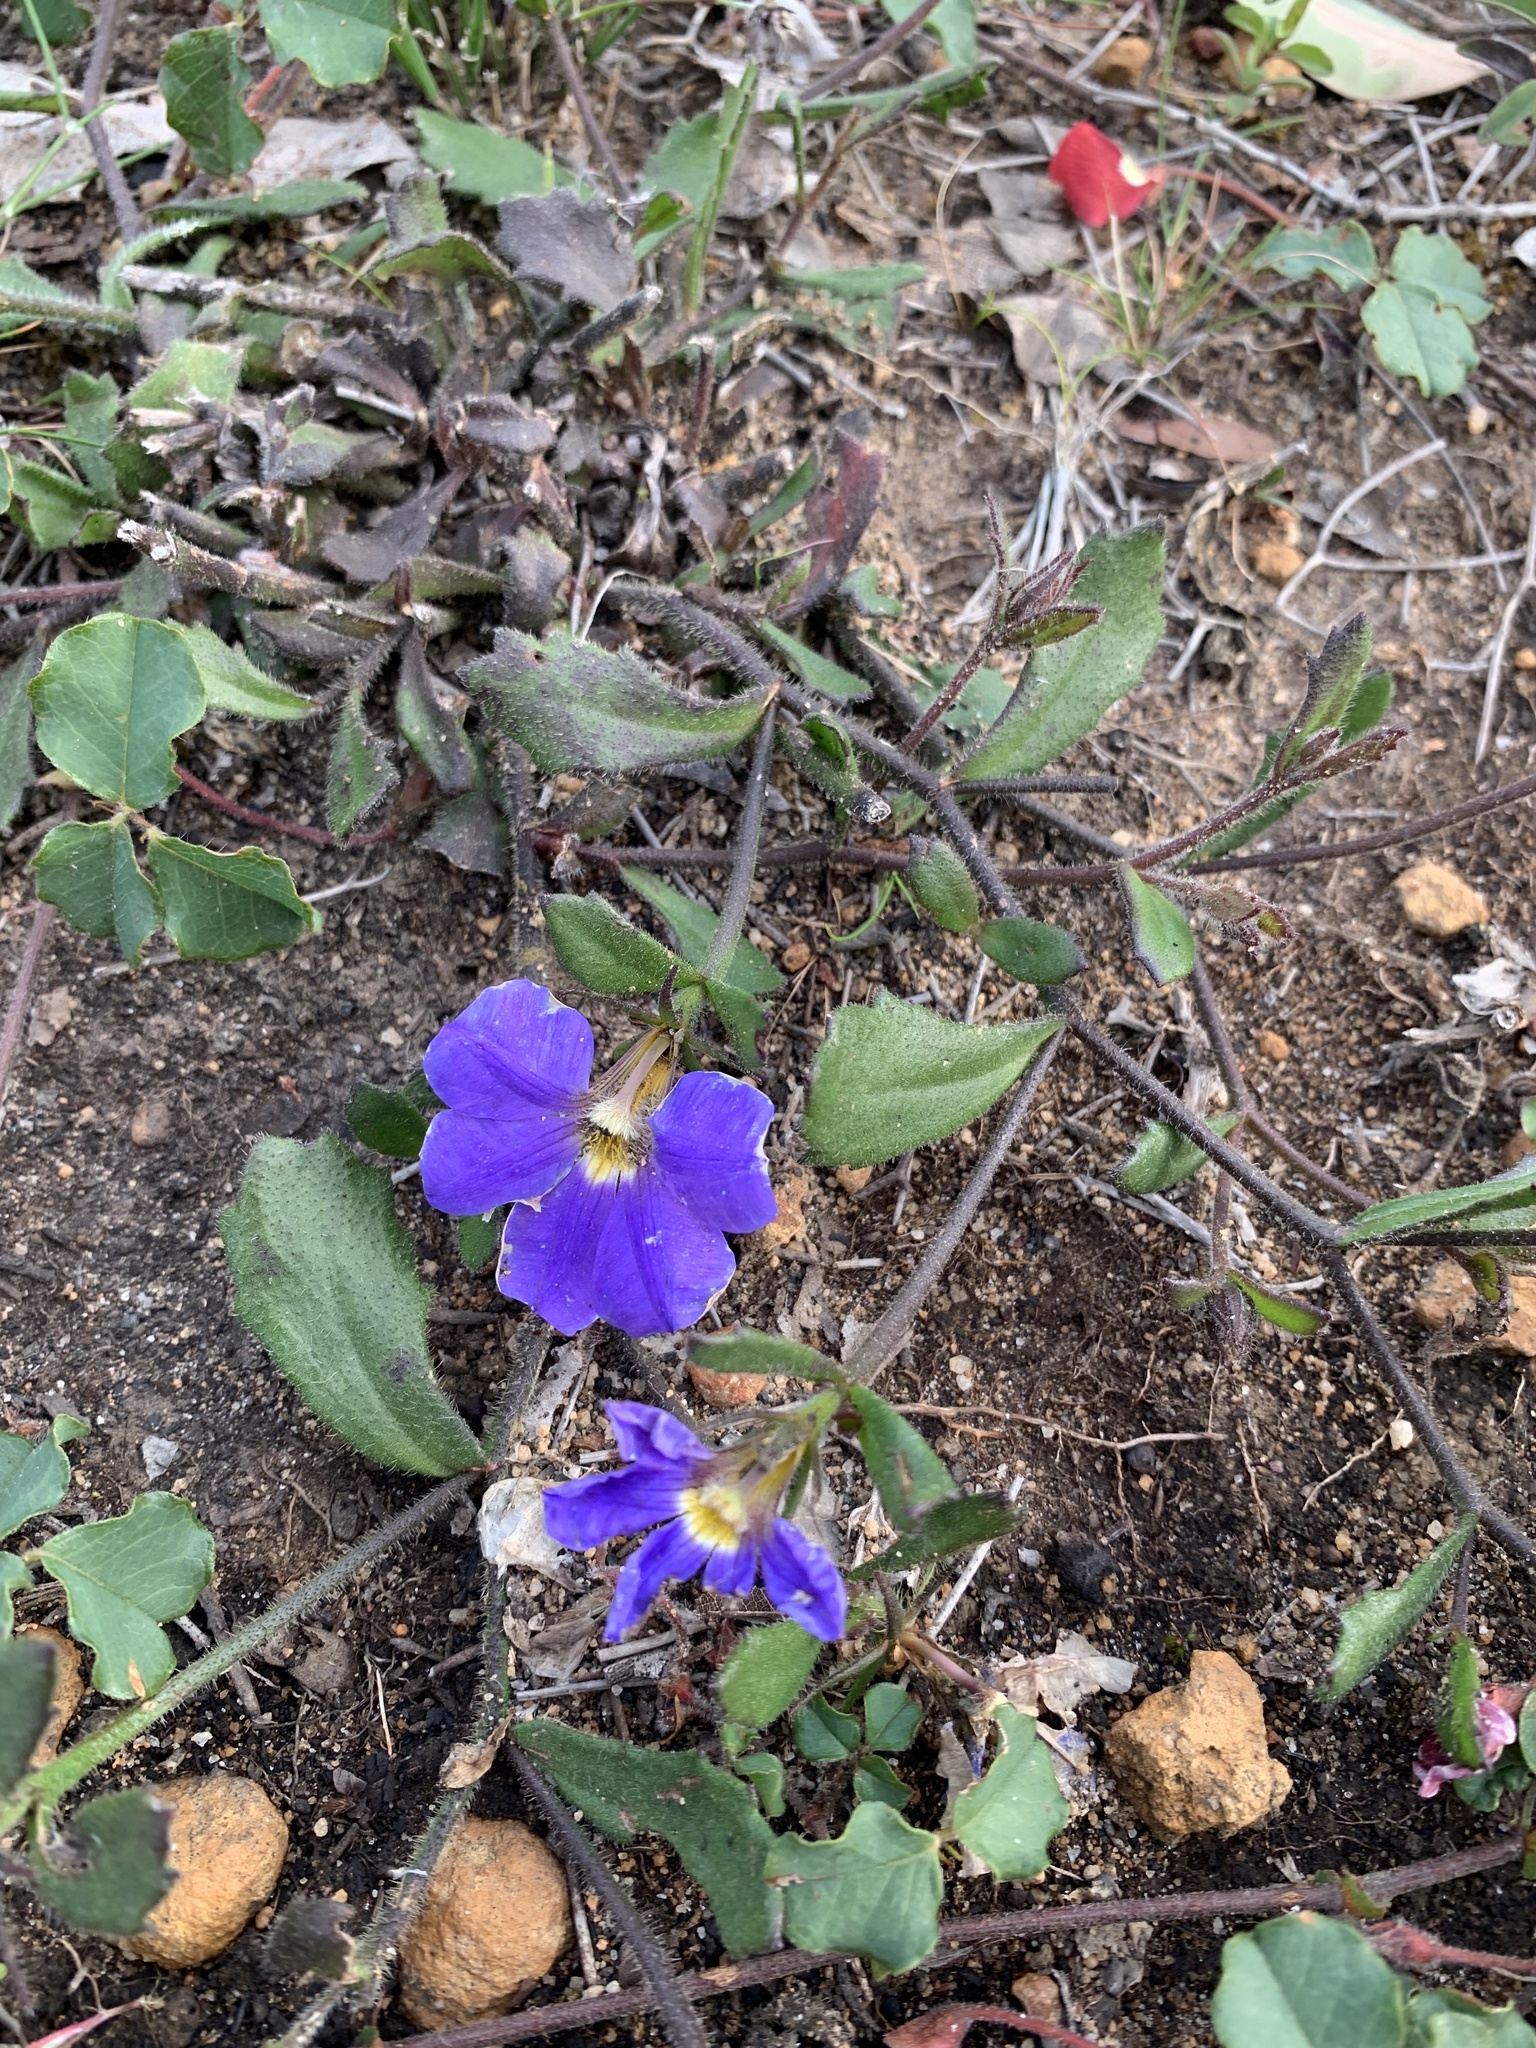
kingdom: Plantae
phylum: Tracheophyta
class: Magnoliopsida
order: Asterales
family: Goodeniaceae
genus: Scaevola
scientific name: Scaevola calliptera
